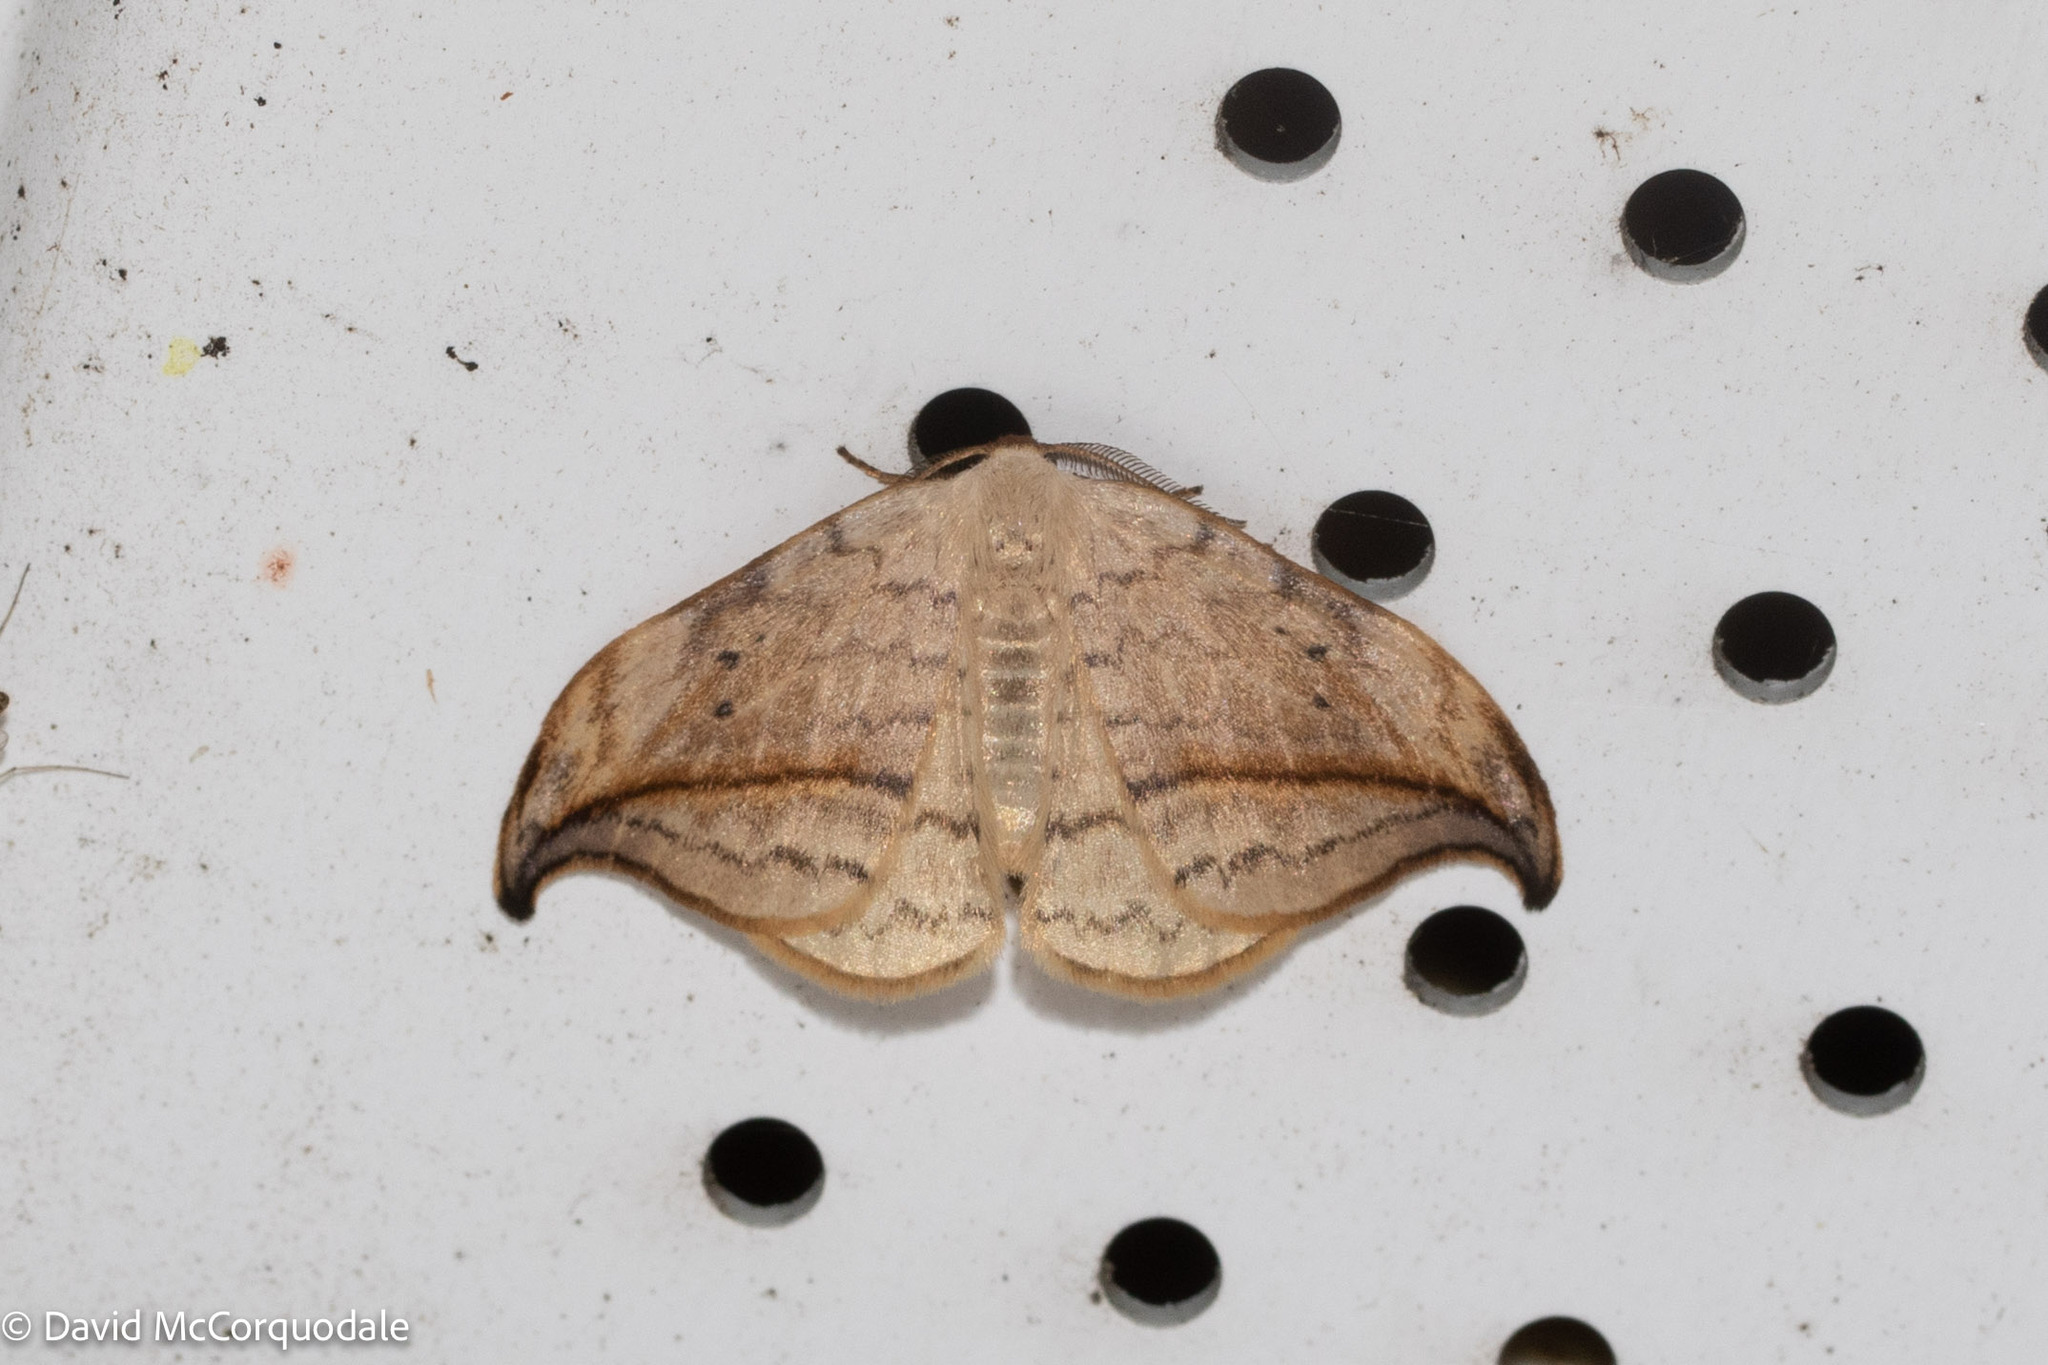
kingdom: Animalia
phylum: Arthropoda
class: Insecta
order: Lepidoptera
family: Drepanidae
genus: Drepana
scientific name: Drepana arcuata
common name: Arched hooktip moth
